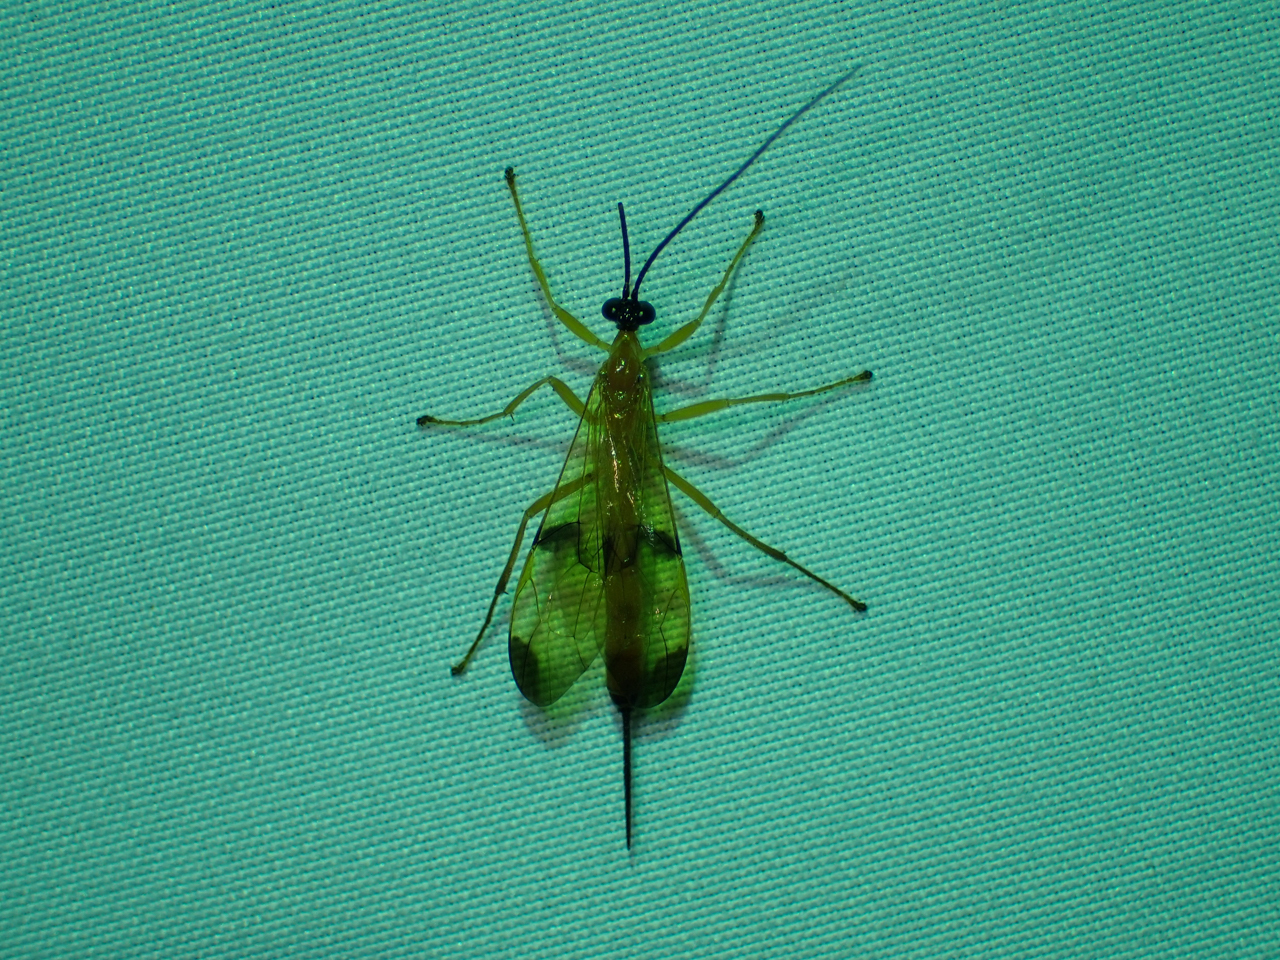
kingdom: Animalia
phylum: Arthropoda
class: Insecta
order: Hymenoptera
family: Ichneumonidae
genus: Acrotaphus
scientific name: Acrotaphus wiltii
